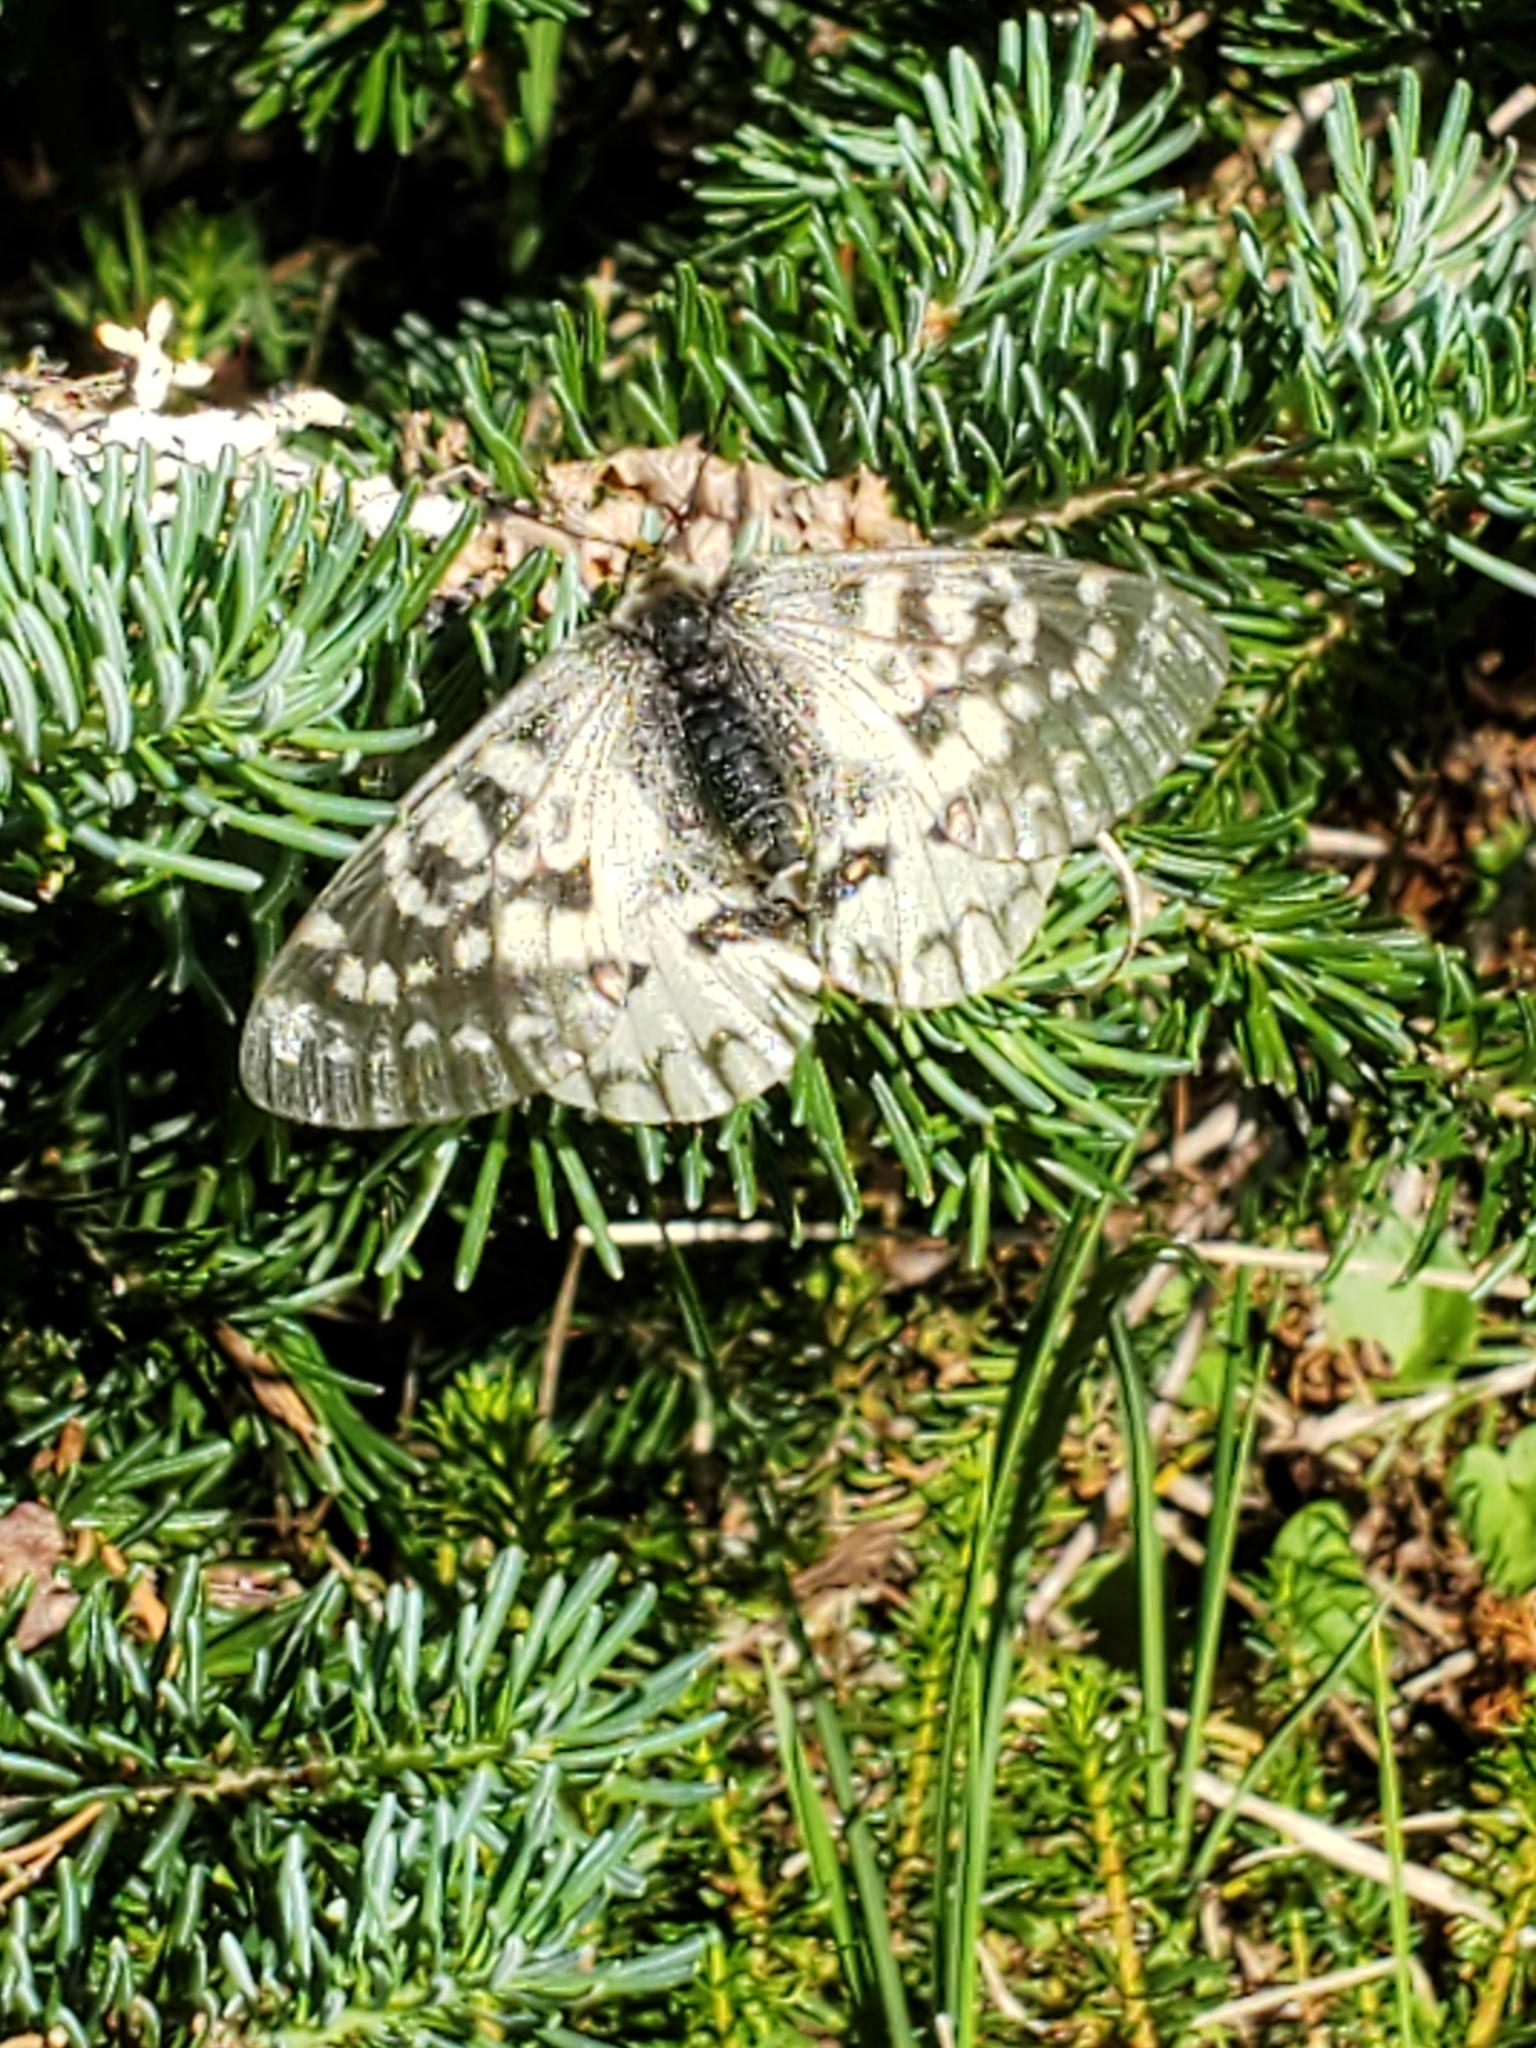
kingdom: Animalia
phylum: Arthropoda
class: Insecta
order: Lepidoptera
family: Papilionidae
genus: Parnassius
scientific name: Parnassius clodius
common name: American apollo
